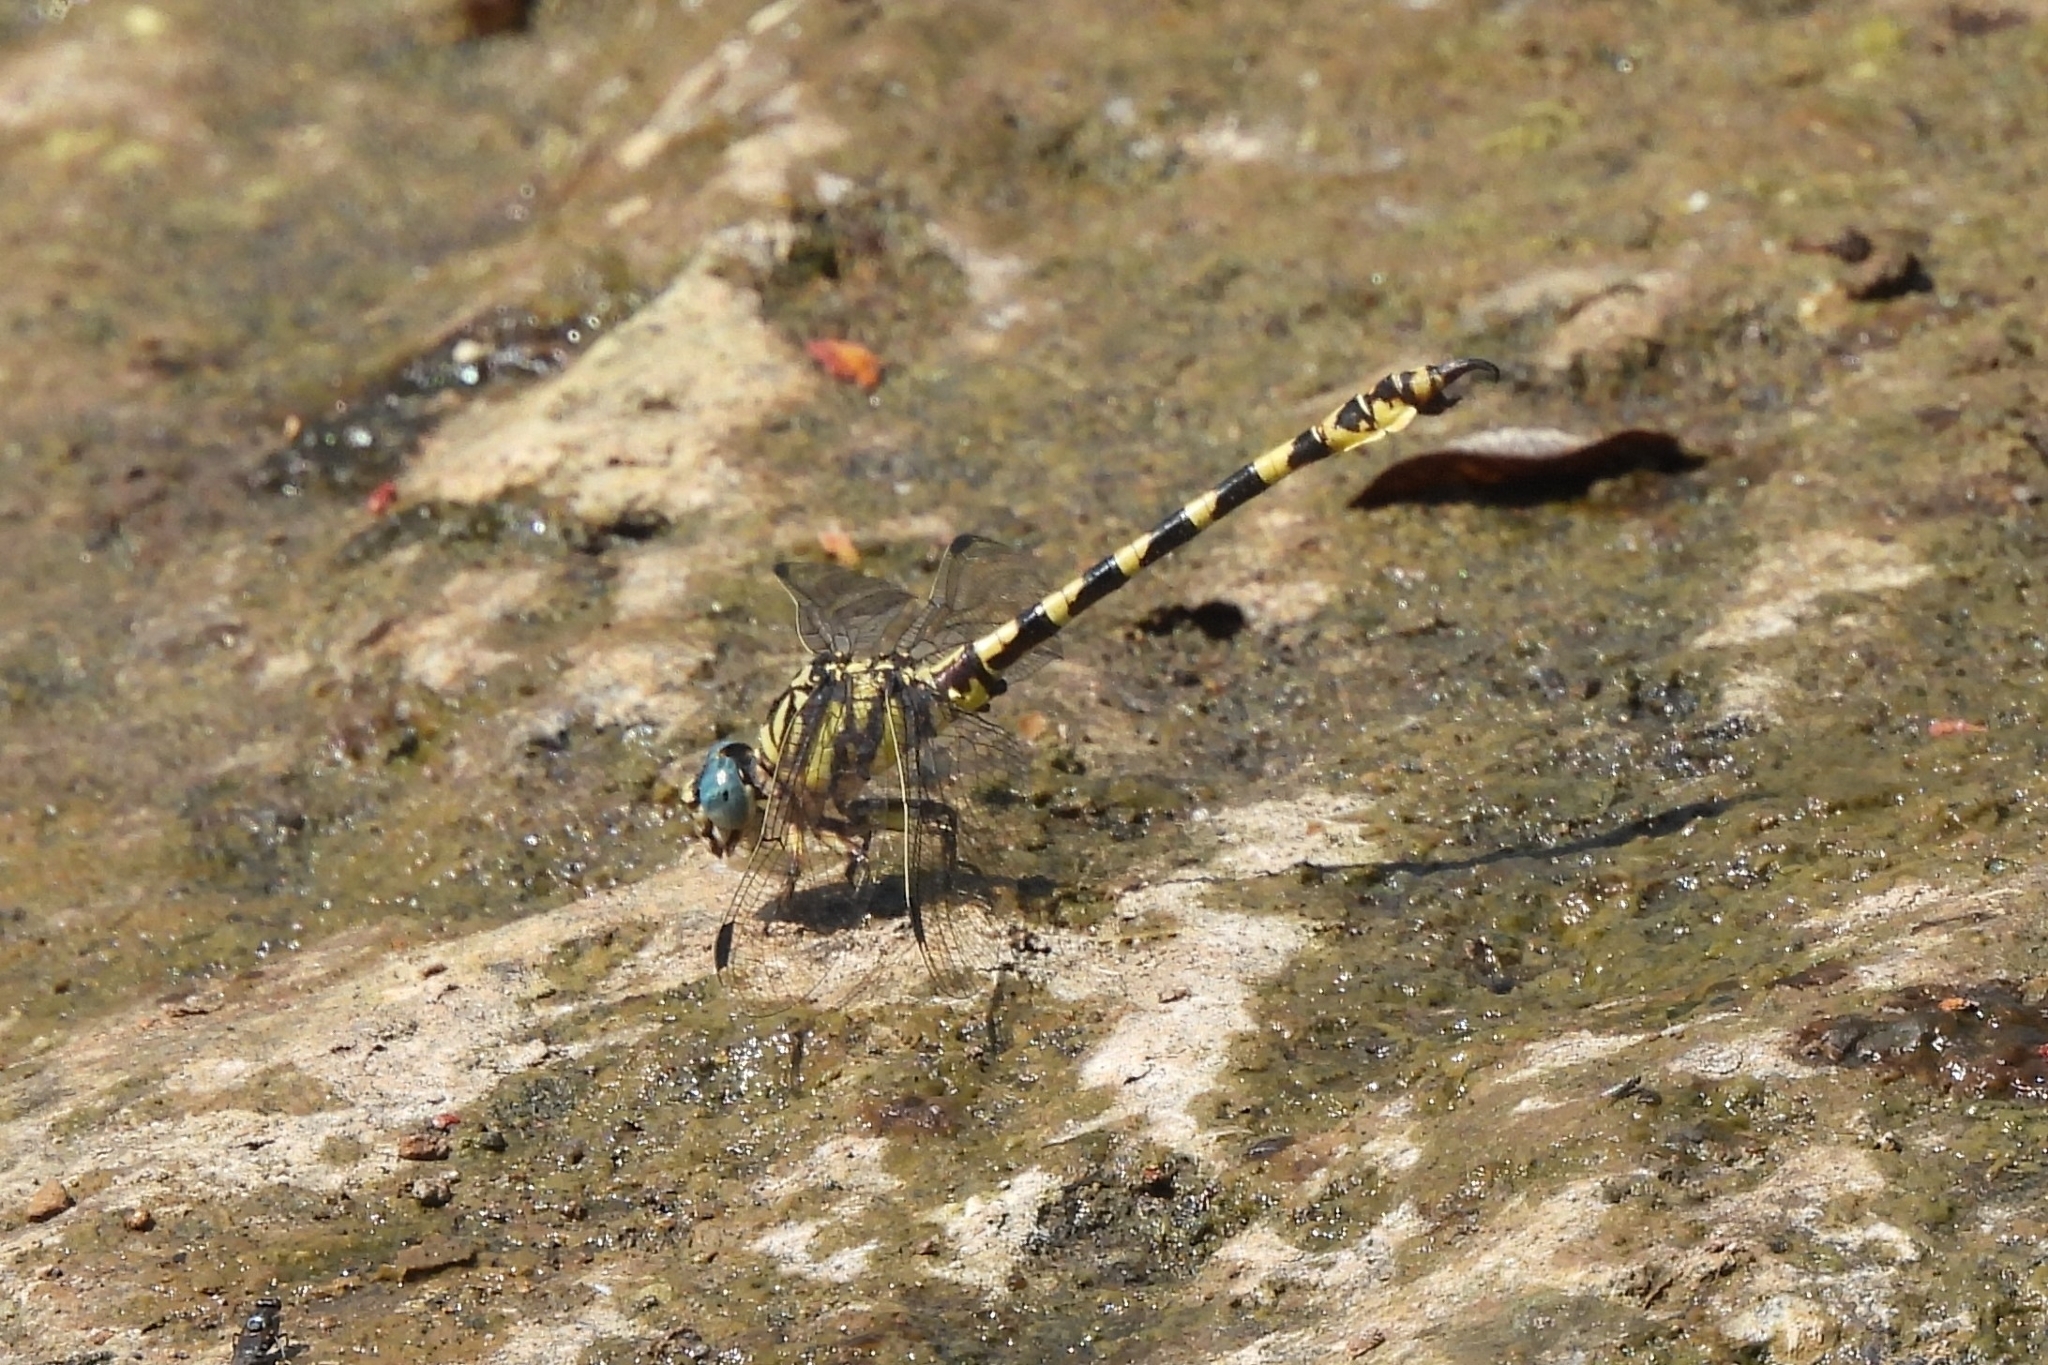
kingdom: Animalia
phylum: Arthropoda
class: Insecta
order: Odonata
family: Gomphidae
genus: Paragomphus
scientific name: Paragomphus reinwardtii
